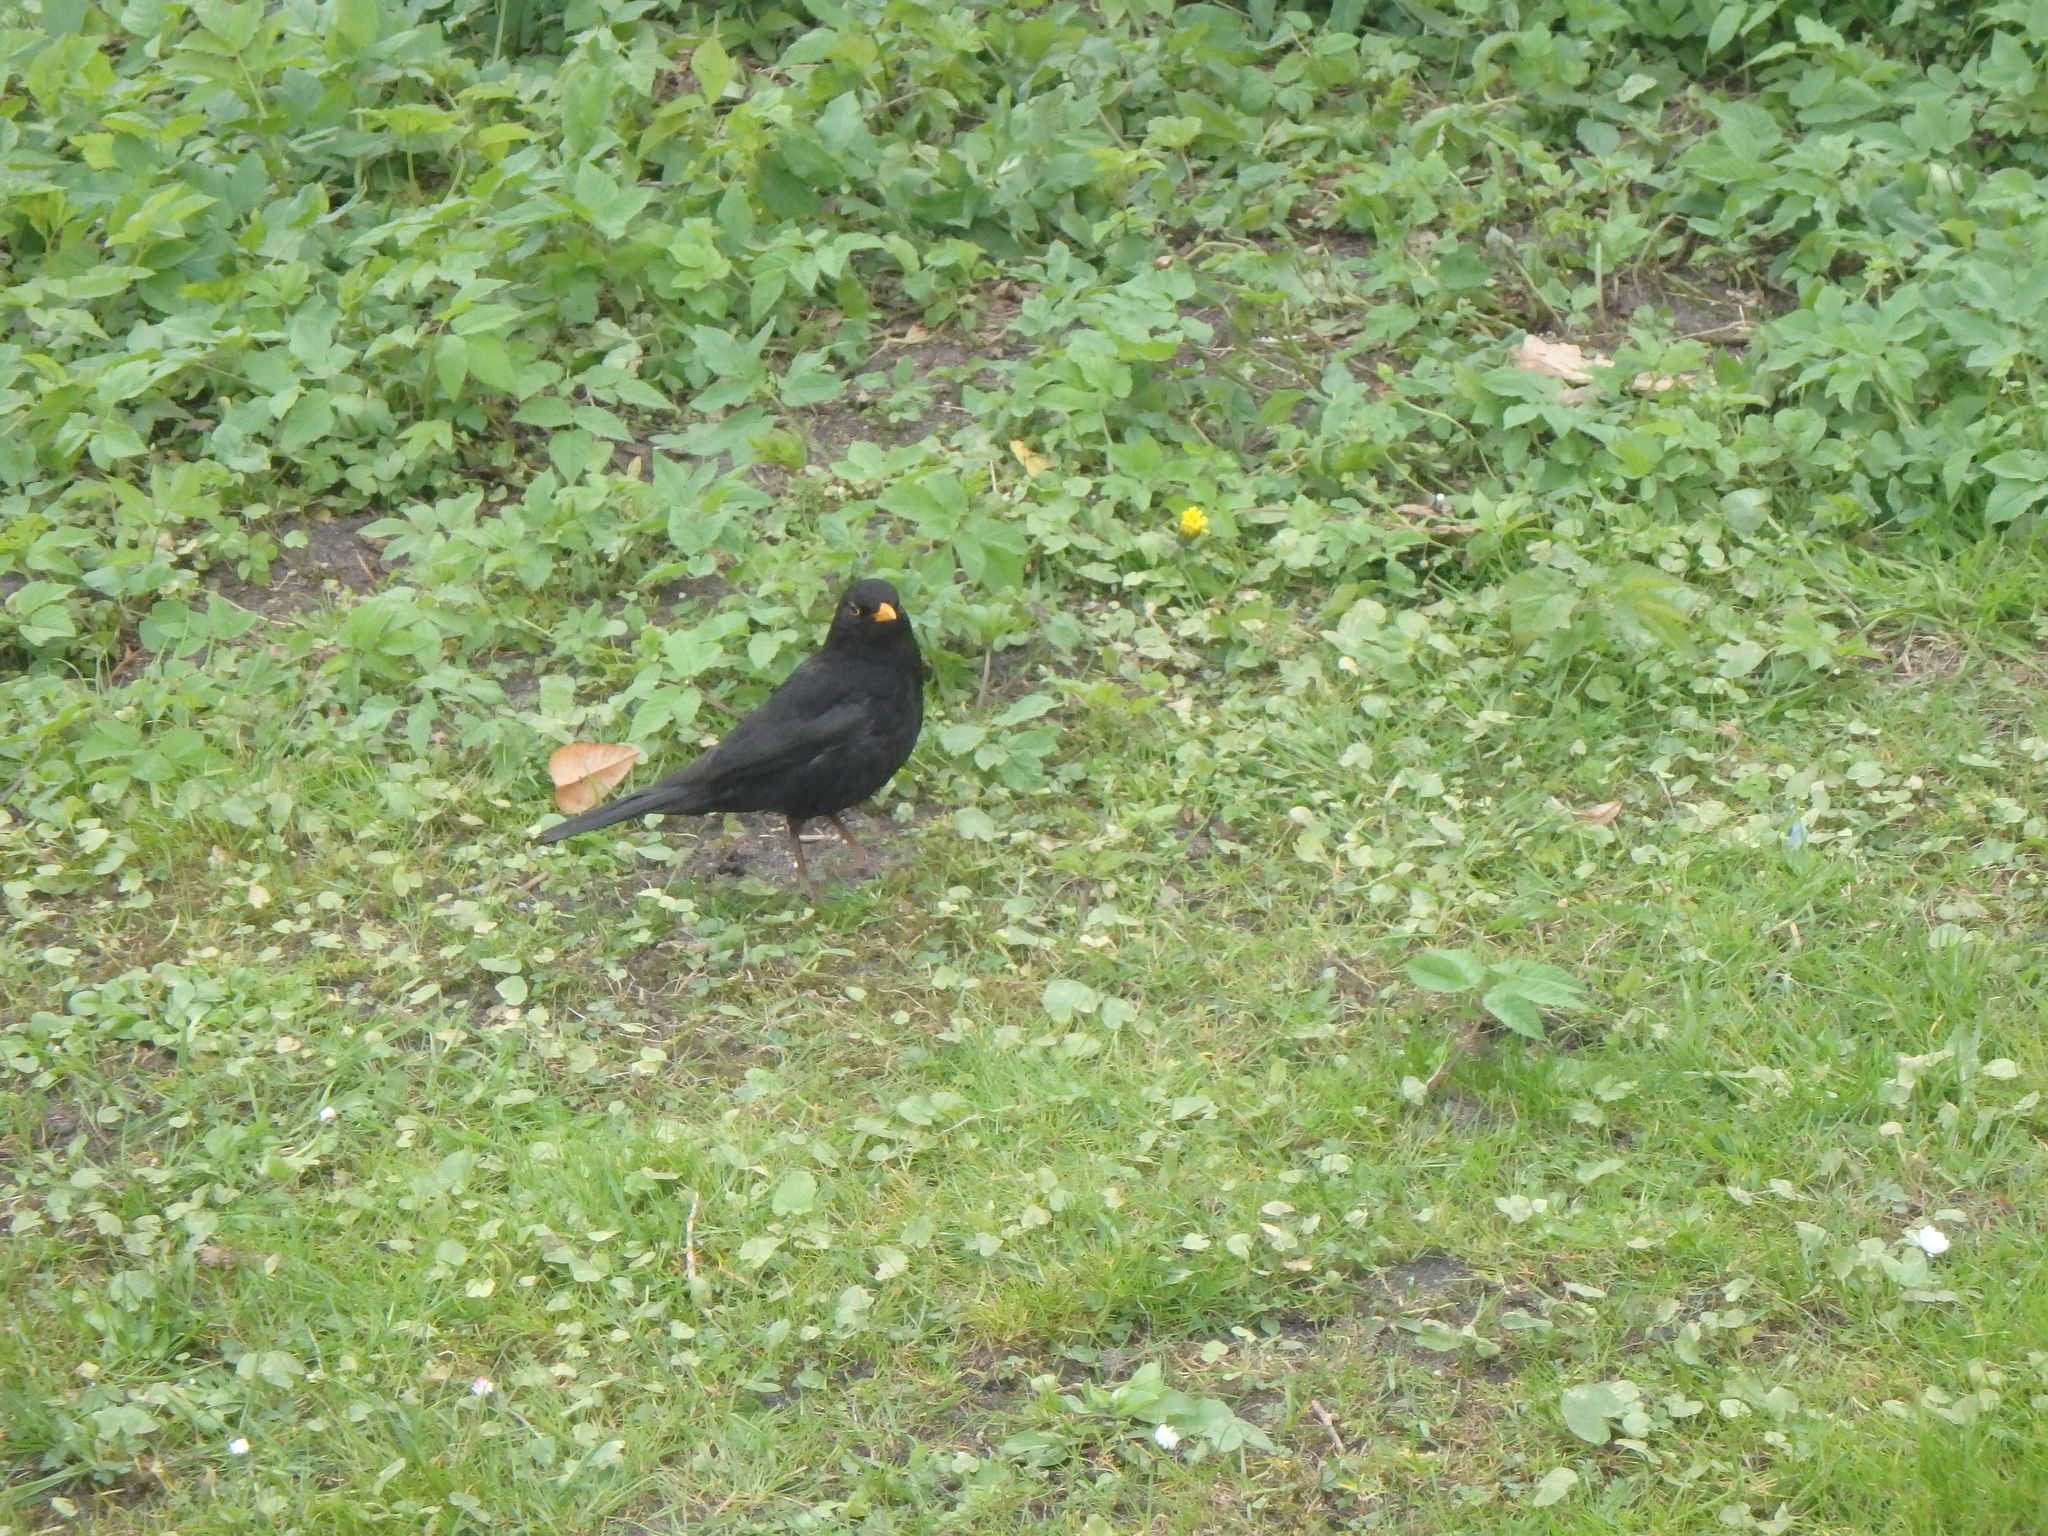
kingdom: Animalia
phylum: Chordata
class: Aves
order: Passeriformes
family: Turdidae
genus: Turdus
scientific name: Turdus merula
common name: Common blackbird
